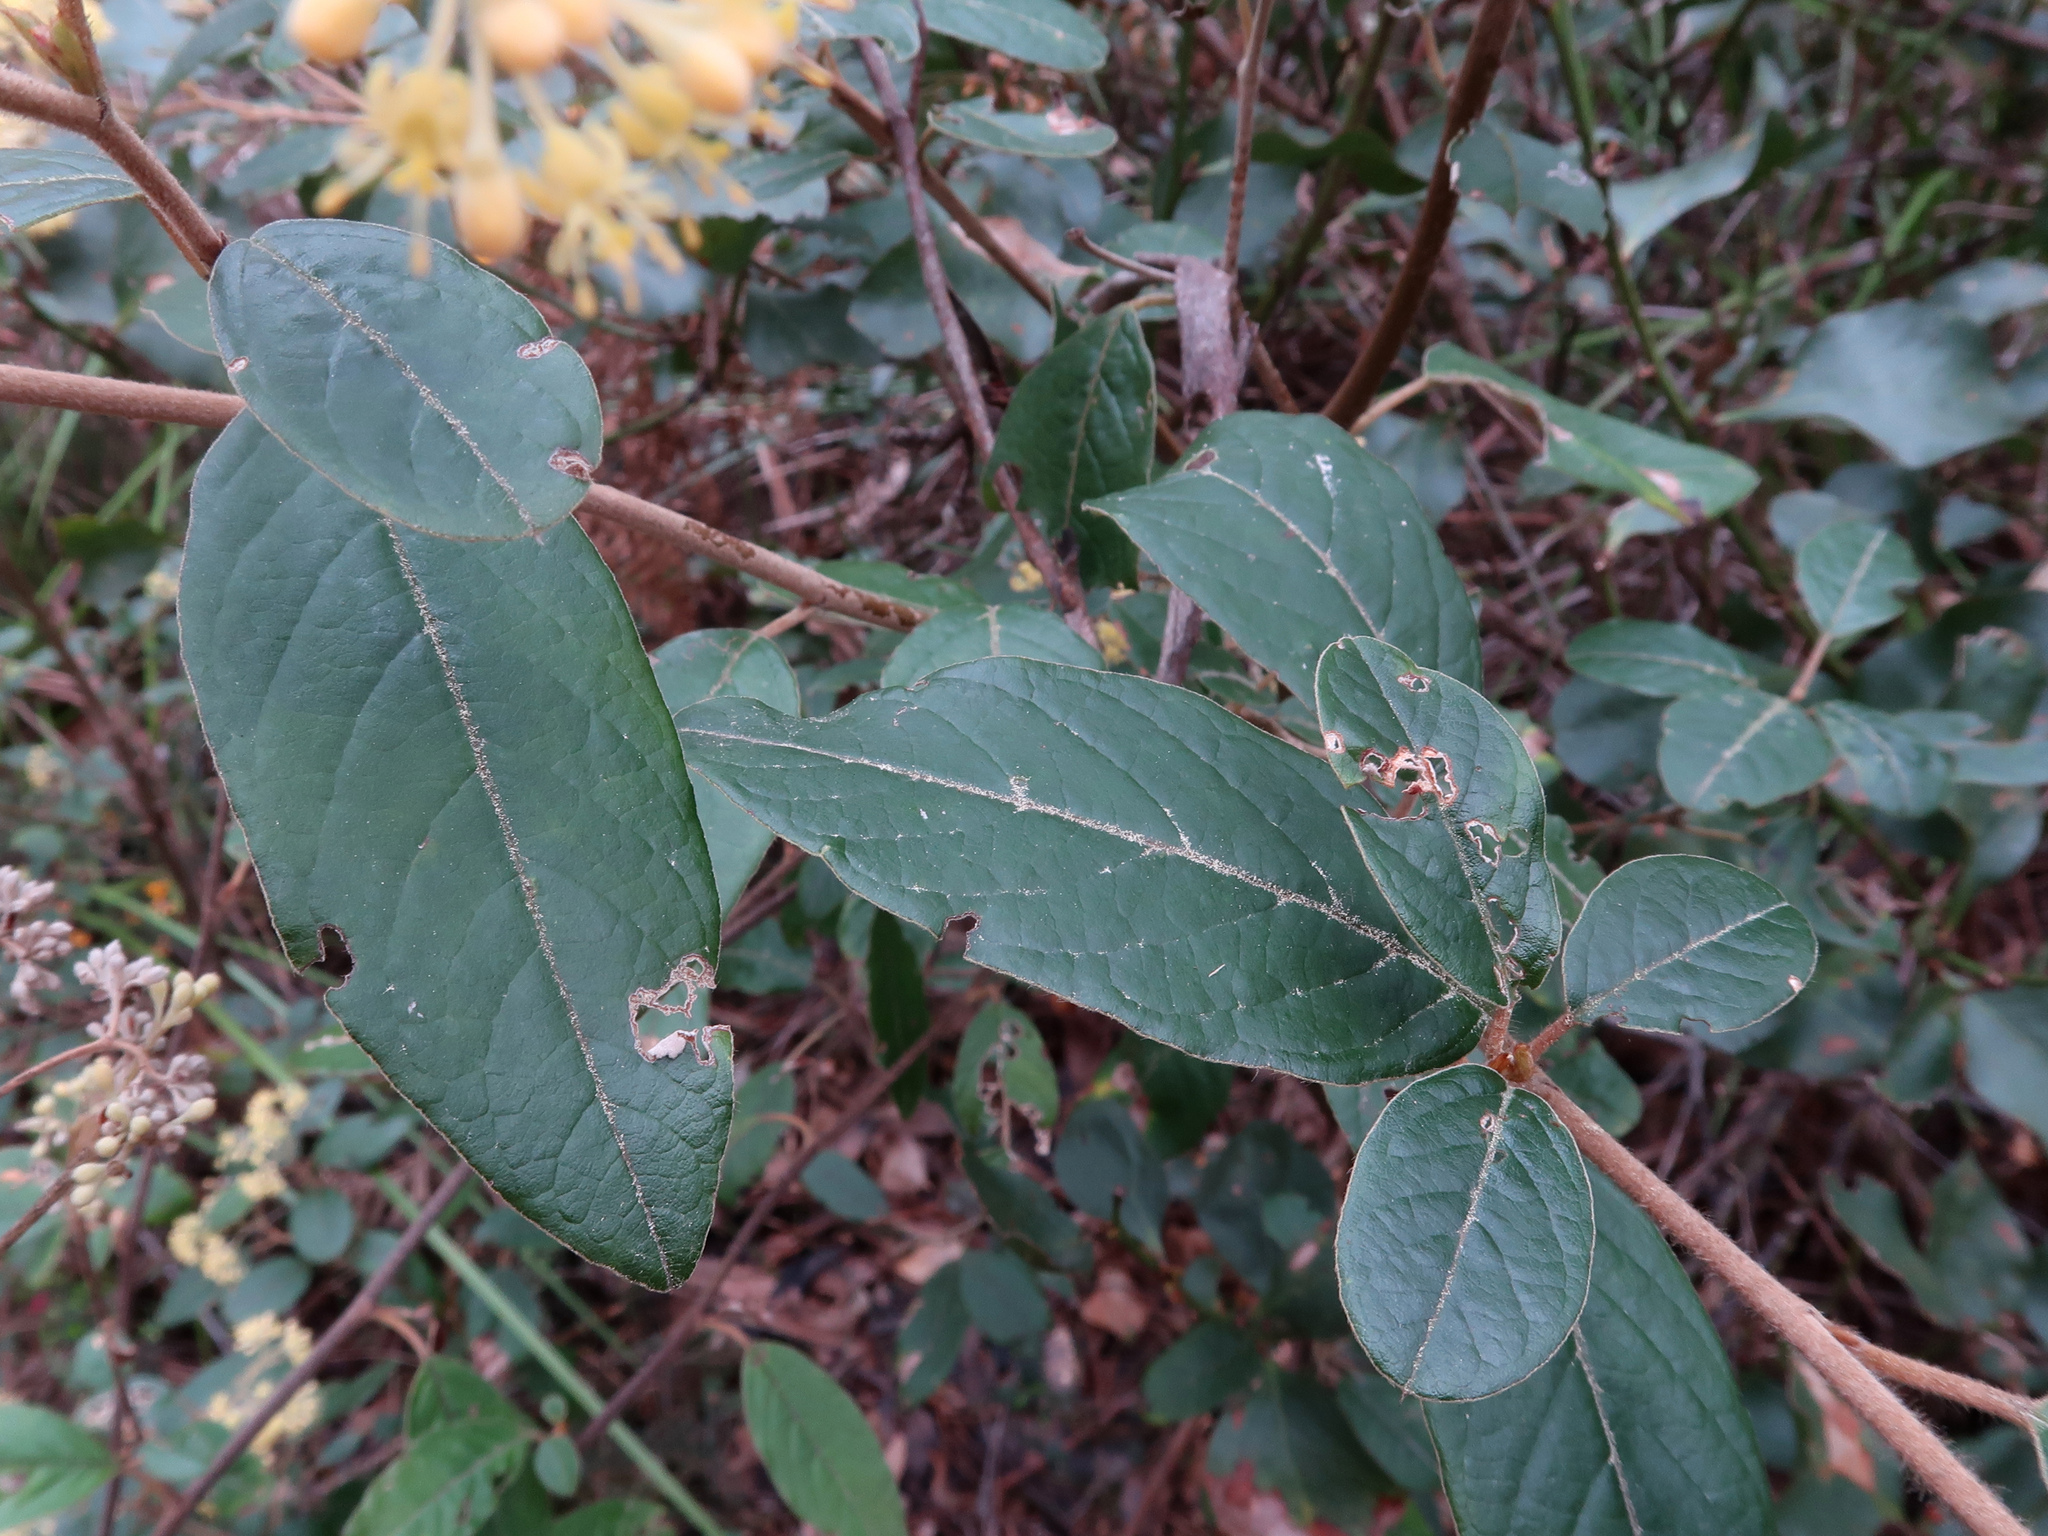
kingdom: Plantae
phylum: Tracheophyta
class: Magnoliopsida
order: Rosales
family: Rhamnaceae
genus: Pomaderris
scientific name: Pomaderris pilifera
